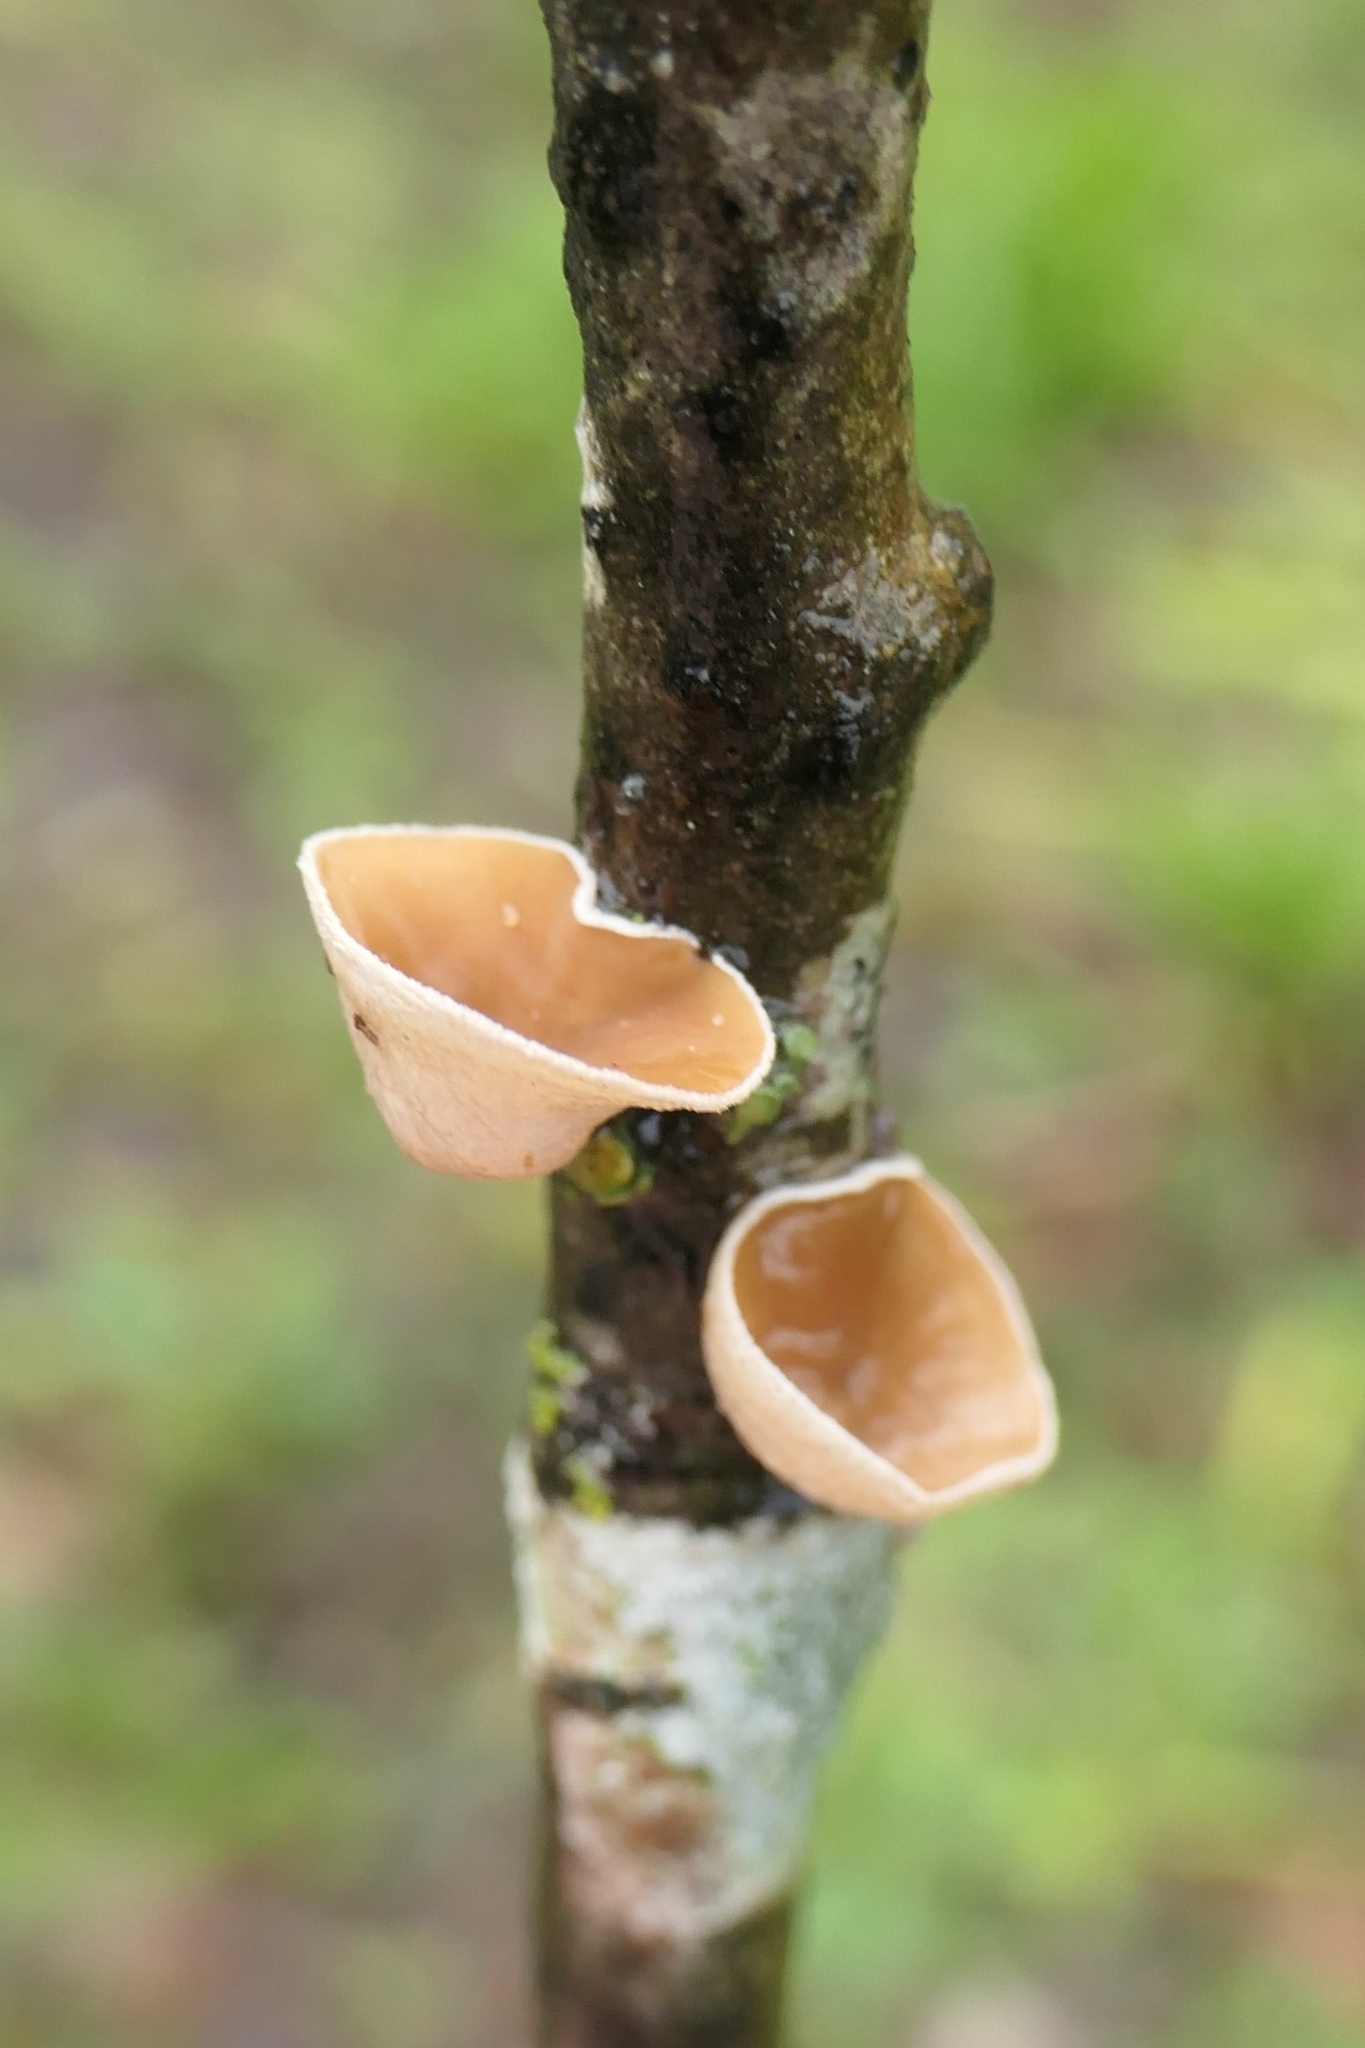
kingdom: Fungi
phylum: Basidiomycota
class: Agaricomycetes
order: Agaricales
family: Schizophyllaceae
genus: Schizophyllum
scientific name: Schizophyllum amplum
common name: Poplar bells
